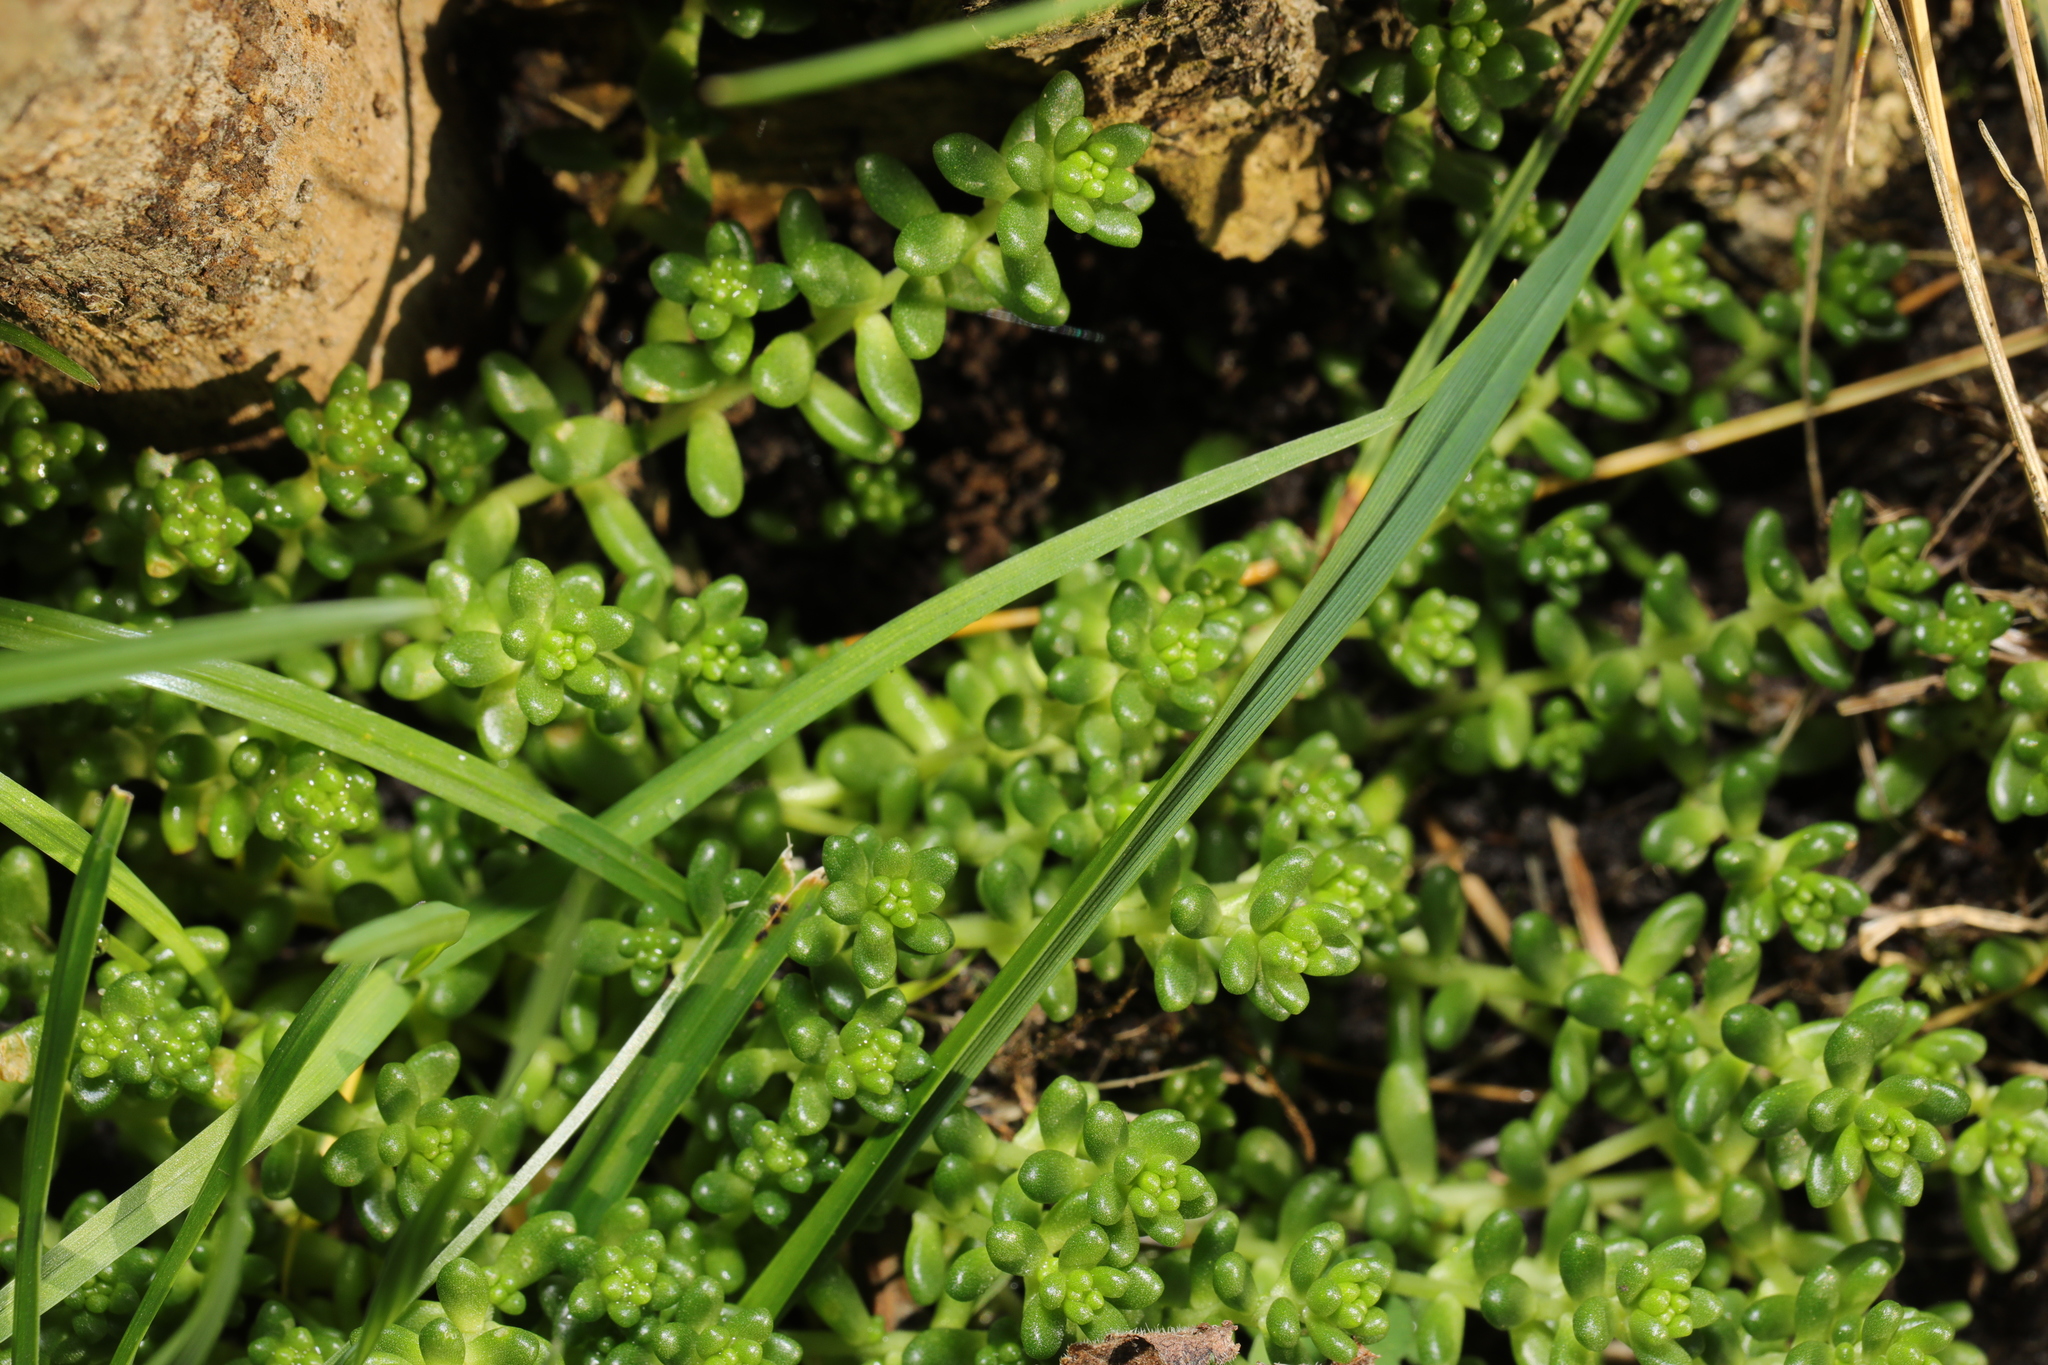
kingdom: Plantae
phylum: Tracheophyta
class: Magnoliopsida
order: Saxifragales
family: Crassulaceae
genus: Sedum
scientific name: Sedum album
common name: White stonecrop
